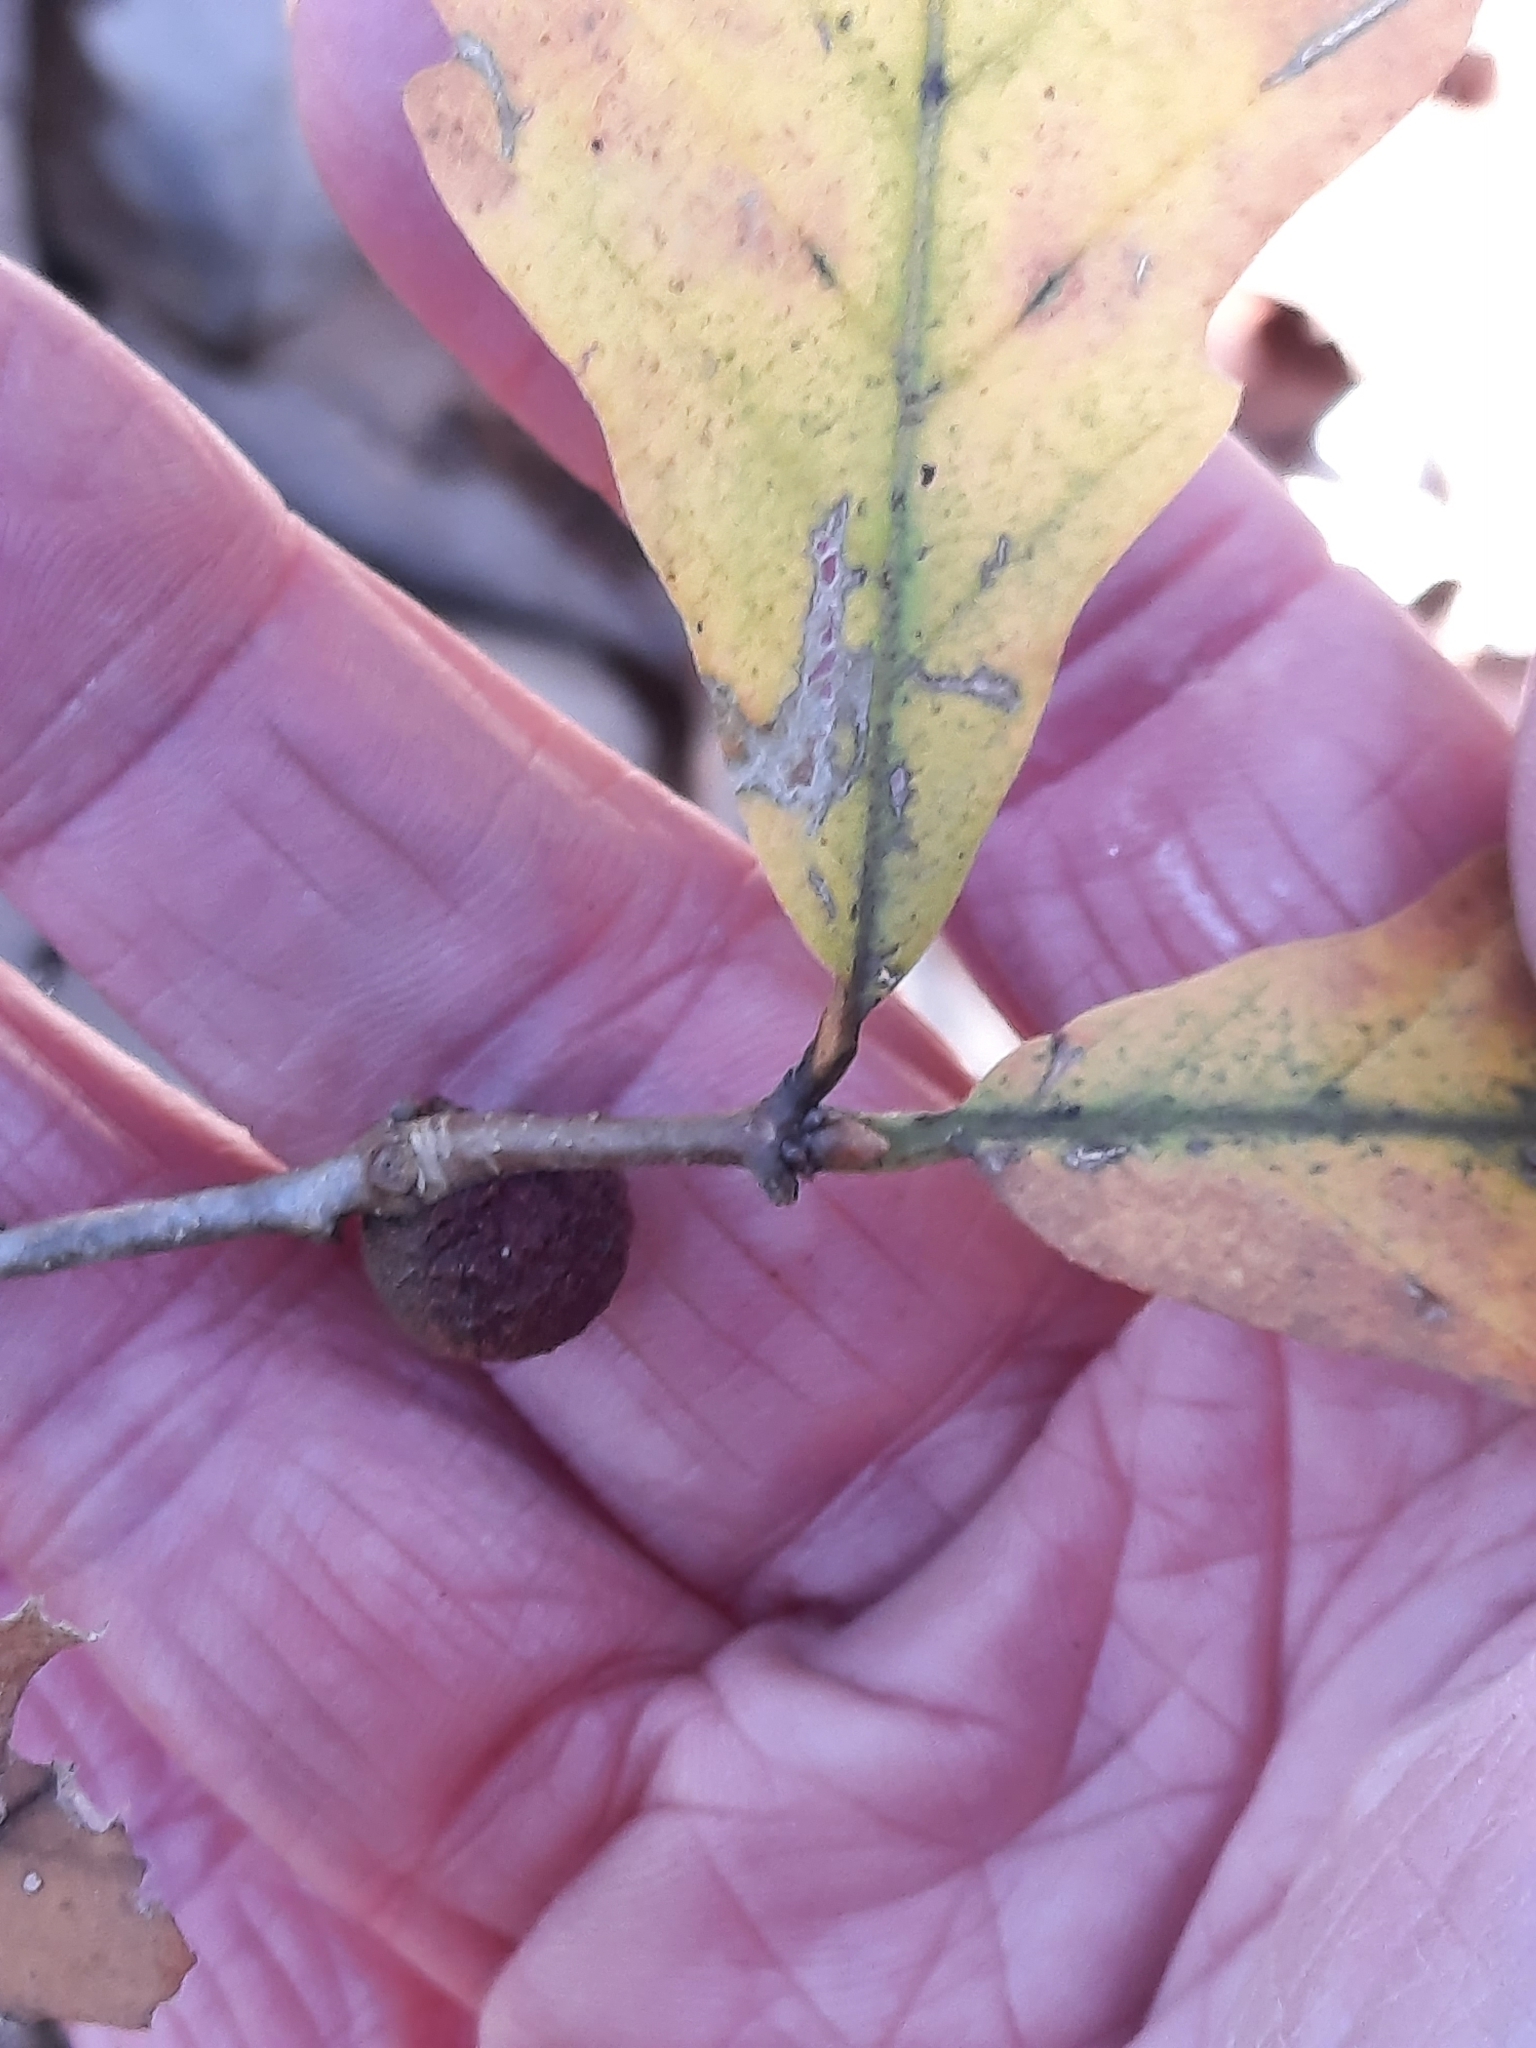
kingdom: Animalia
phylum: Arthropoda
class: Insecta
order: Hymenoptera
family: Cynipidae
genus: Disholcaspis
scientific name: Disholcaspis quercusglobulus
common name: Round bullet gall wasp
